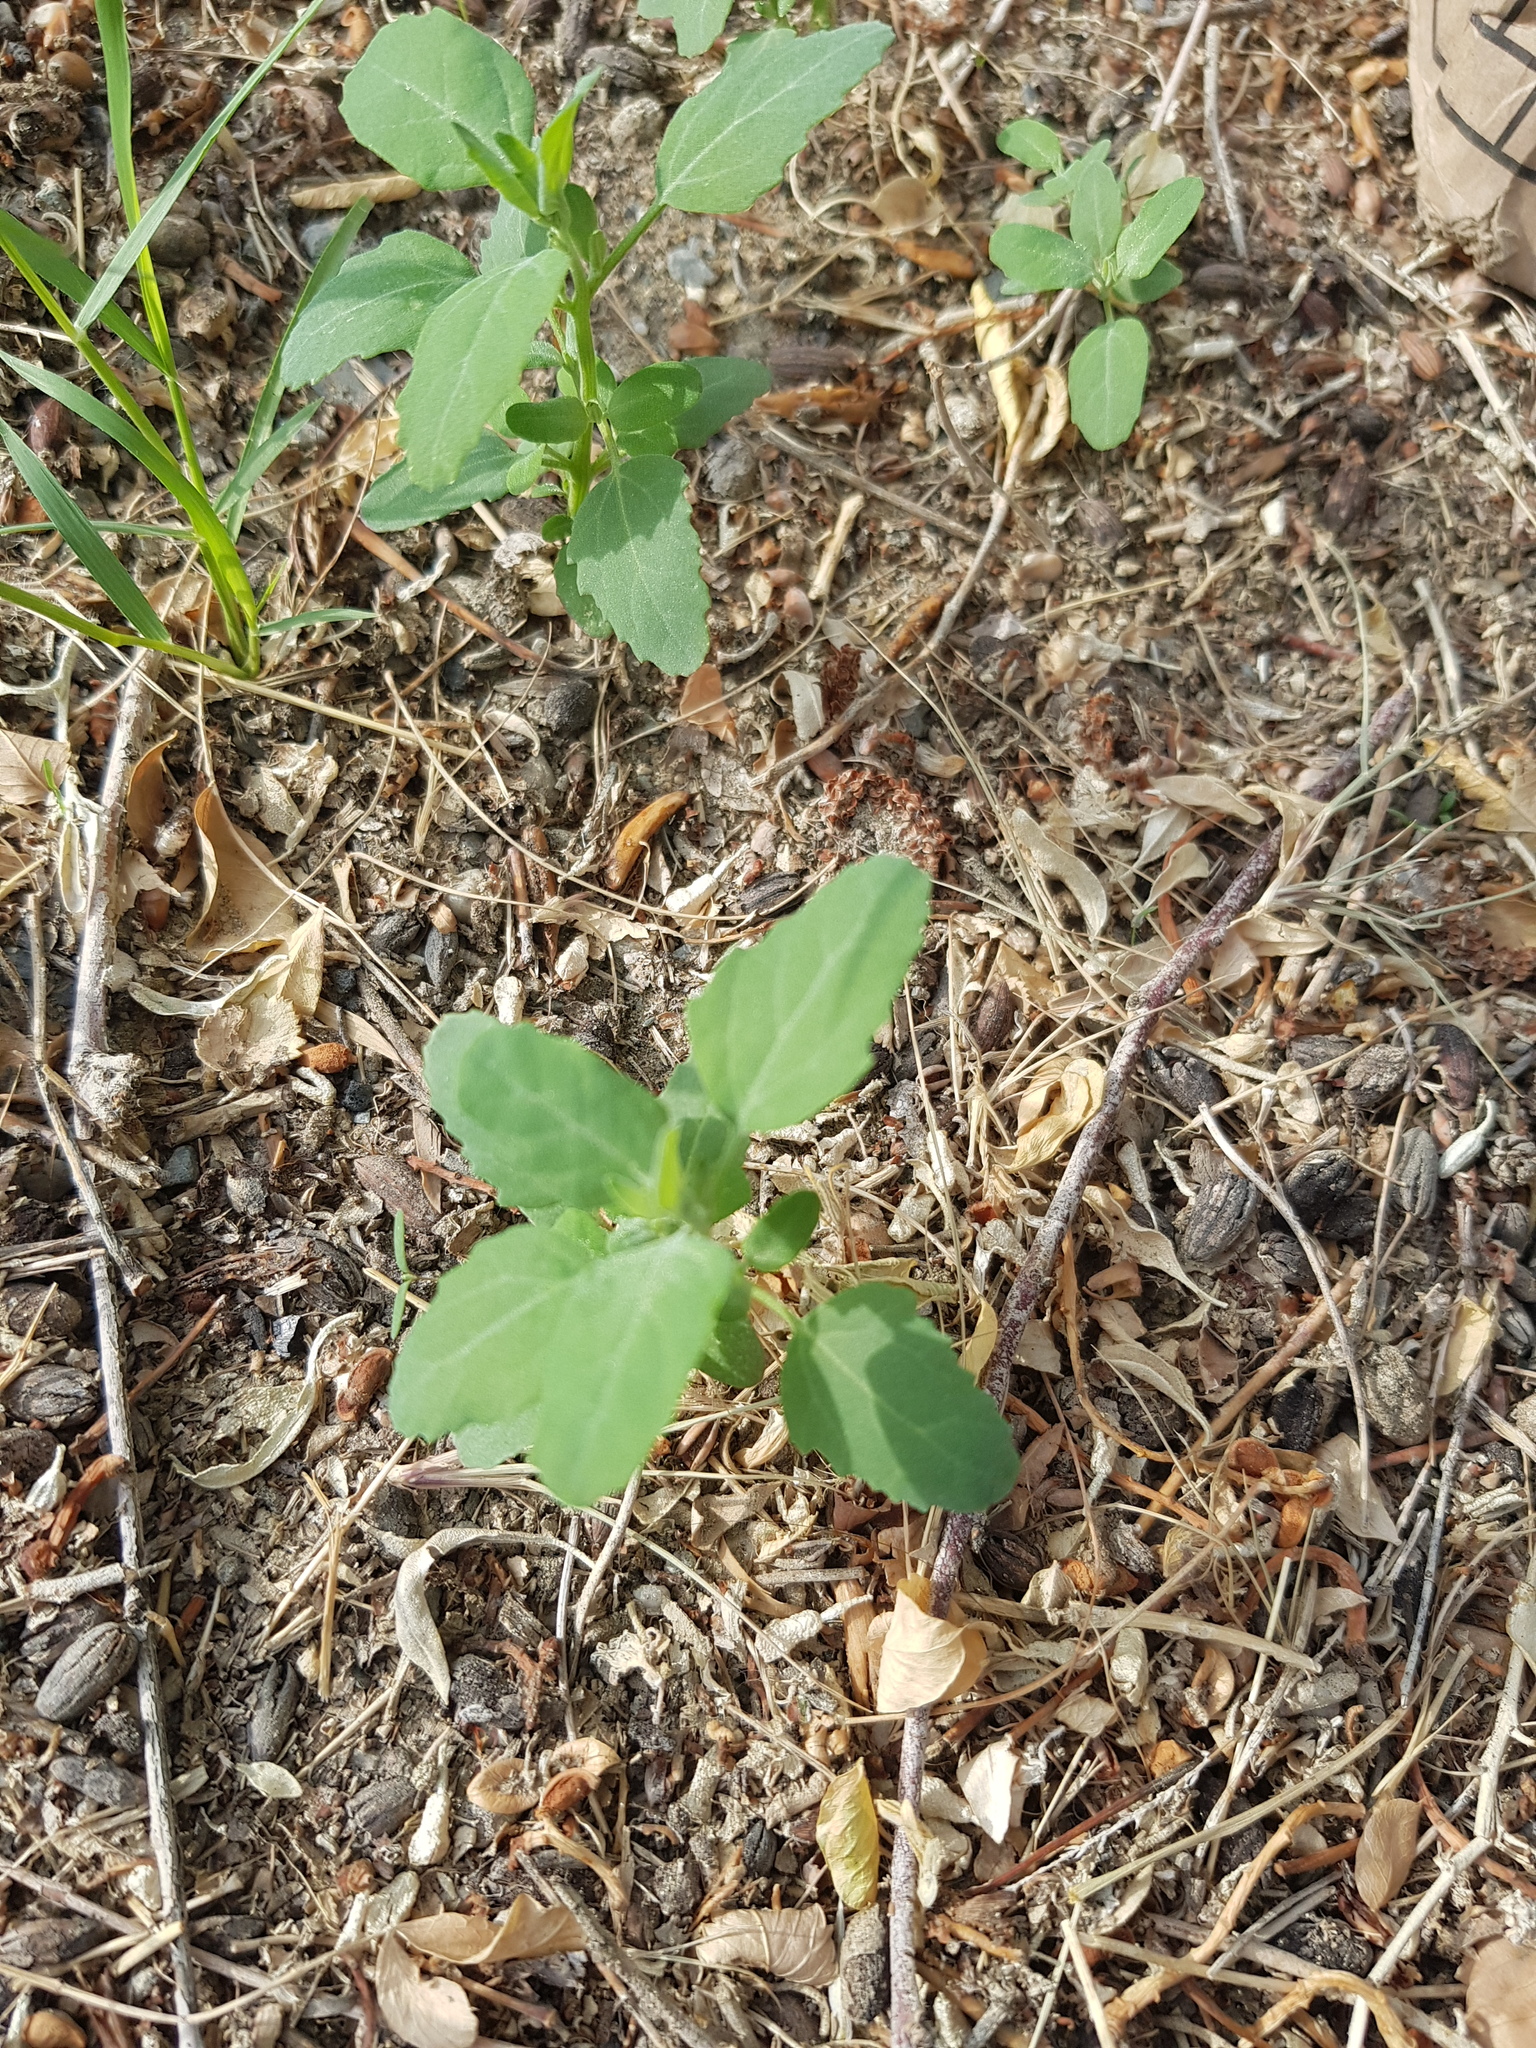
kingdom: Plantae
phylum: Tracheophyta
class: Magnoliopsida
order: Caryophyllales
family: Amaranthaceae
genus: Chenopodium
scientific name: Chenopodium album
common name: Fat-hen
